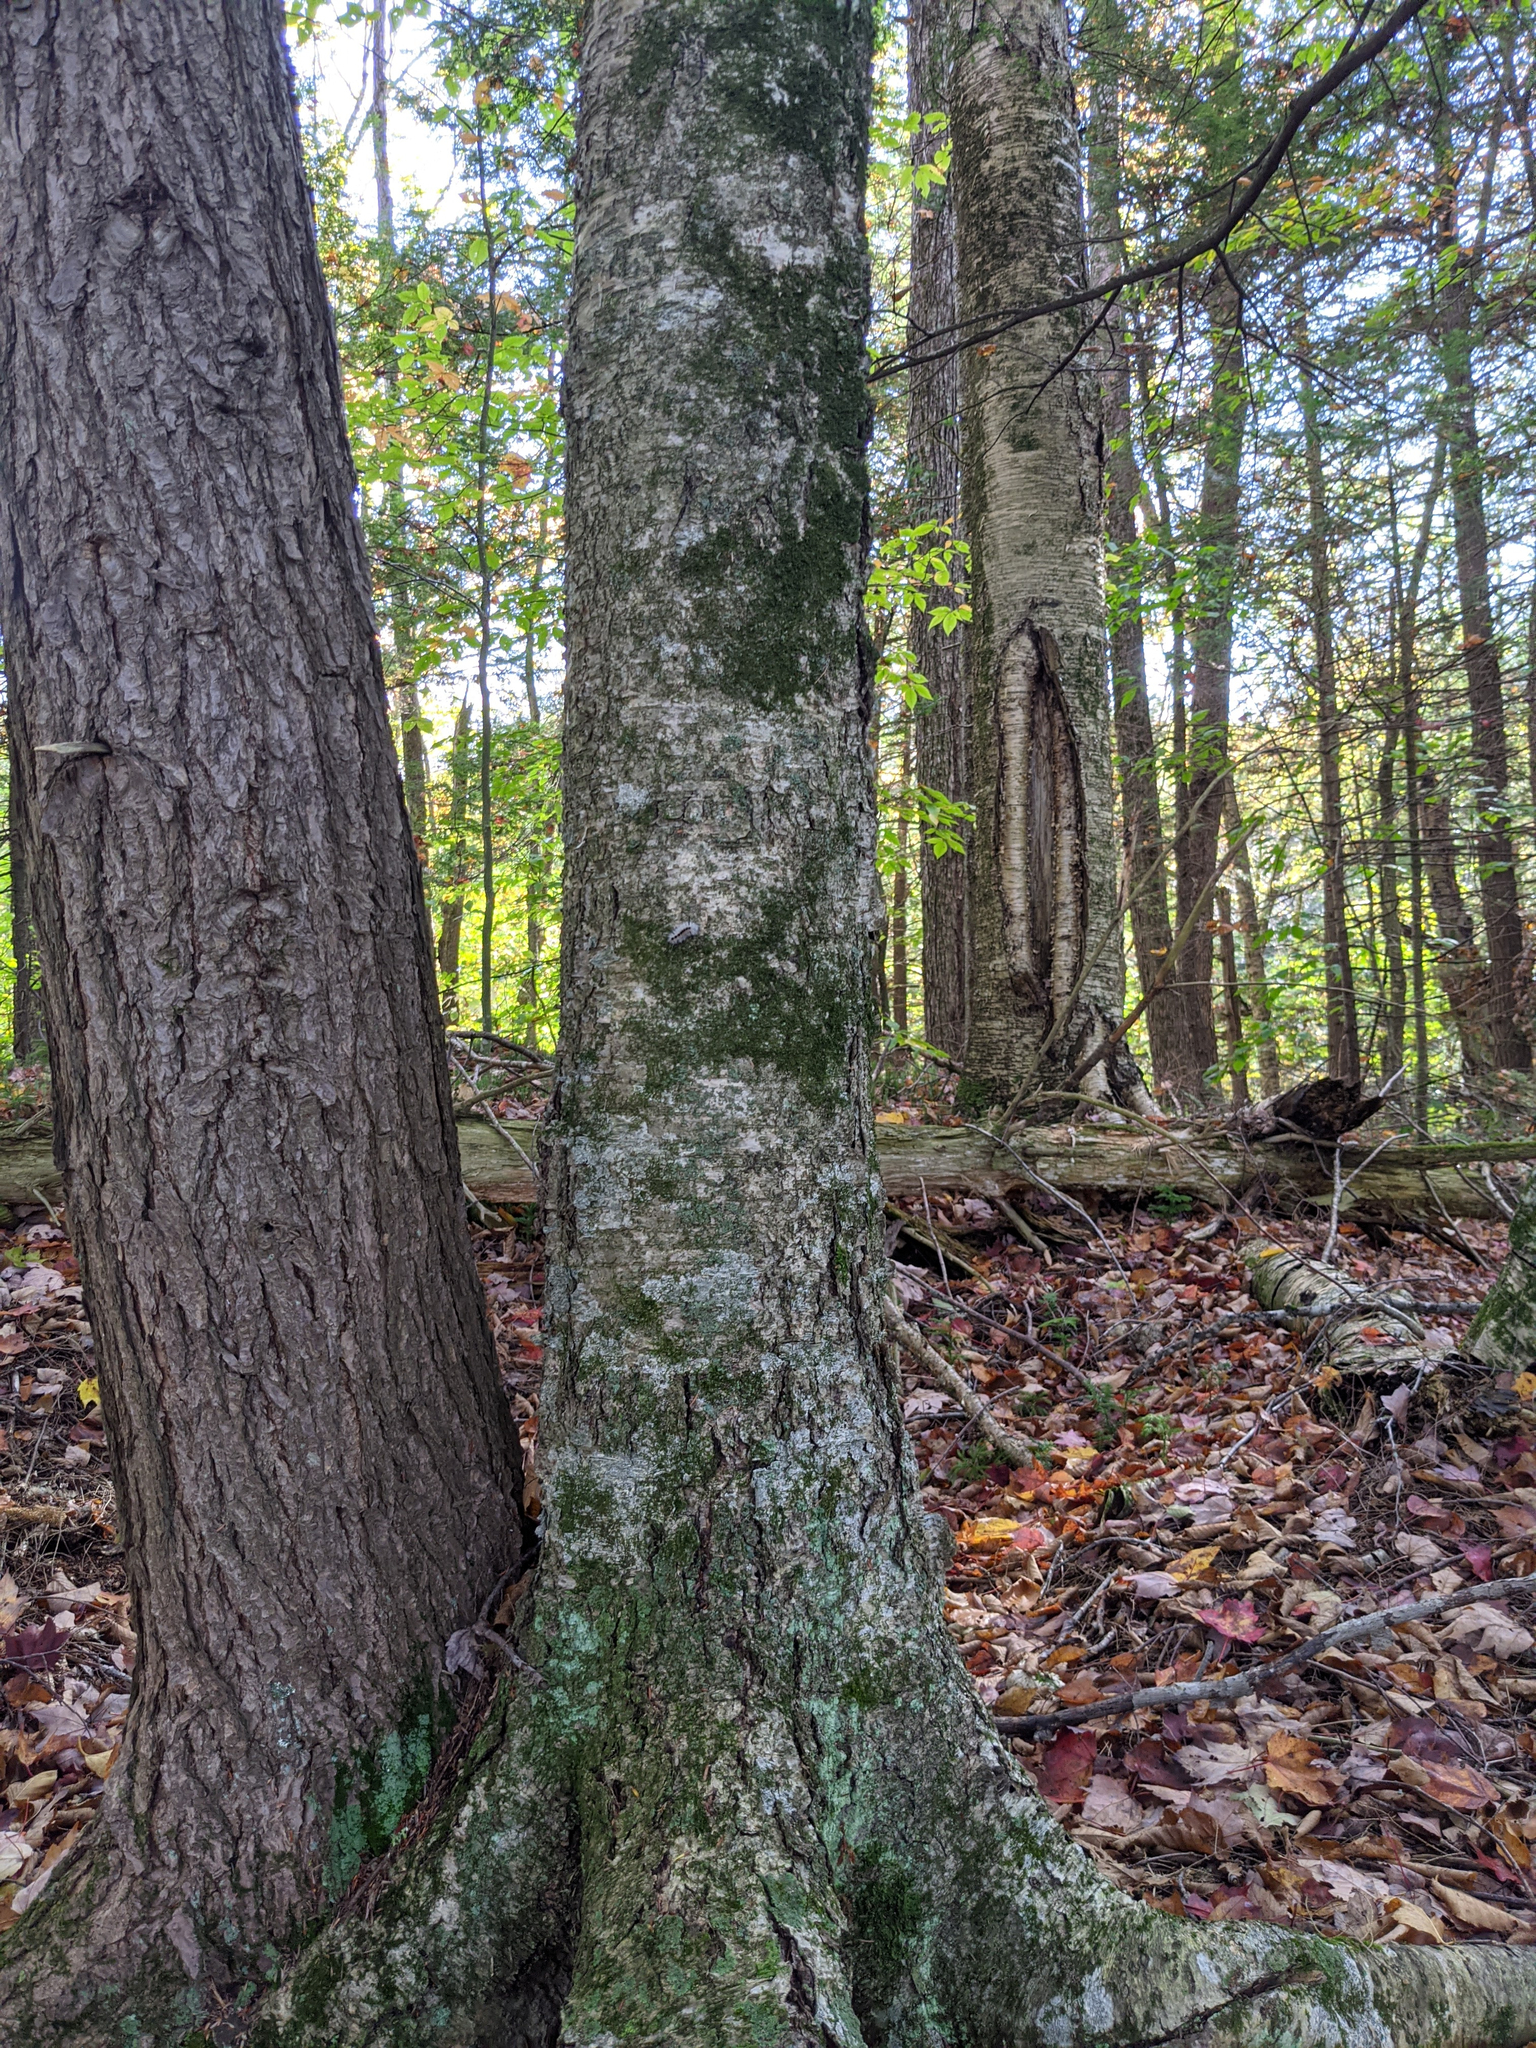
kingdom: Plantae
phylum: Tracheophyta
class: Magnoliopsida
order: Fagales
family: Betulaceae
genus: Betula
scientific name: Betula alleghaniensis
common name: Yellow birch
